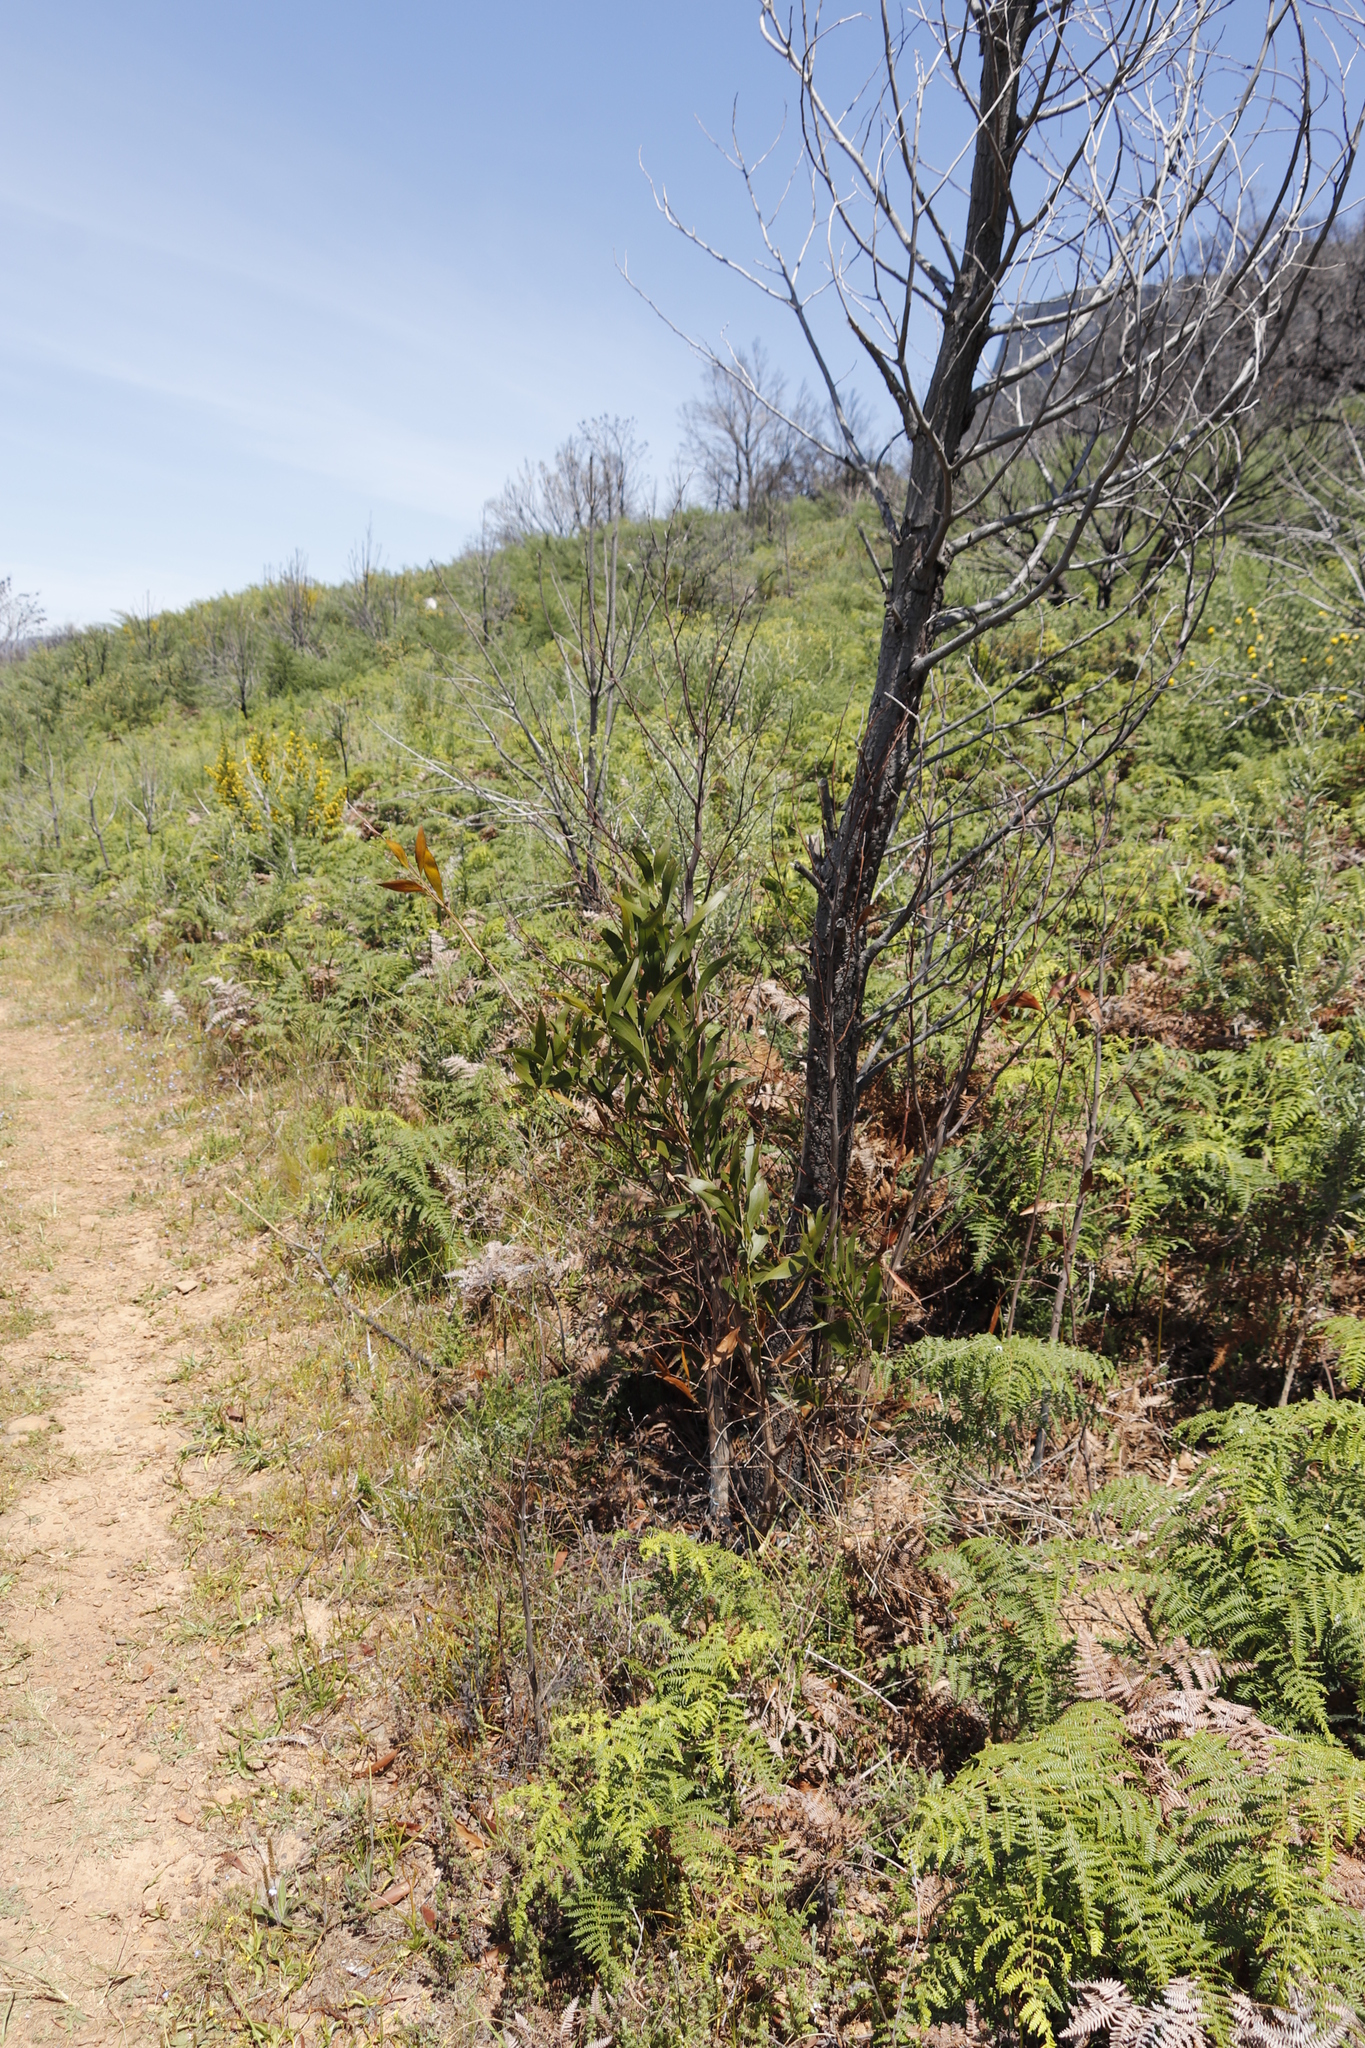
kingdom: Plantae
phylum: Tracheophyta
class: Magnoliopsida
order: Fabales
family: Fabaceae
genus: Acacia
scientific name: Acacia melanoxylon
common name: Blackwood
